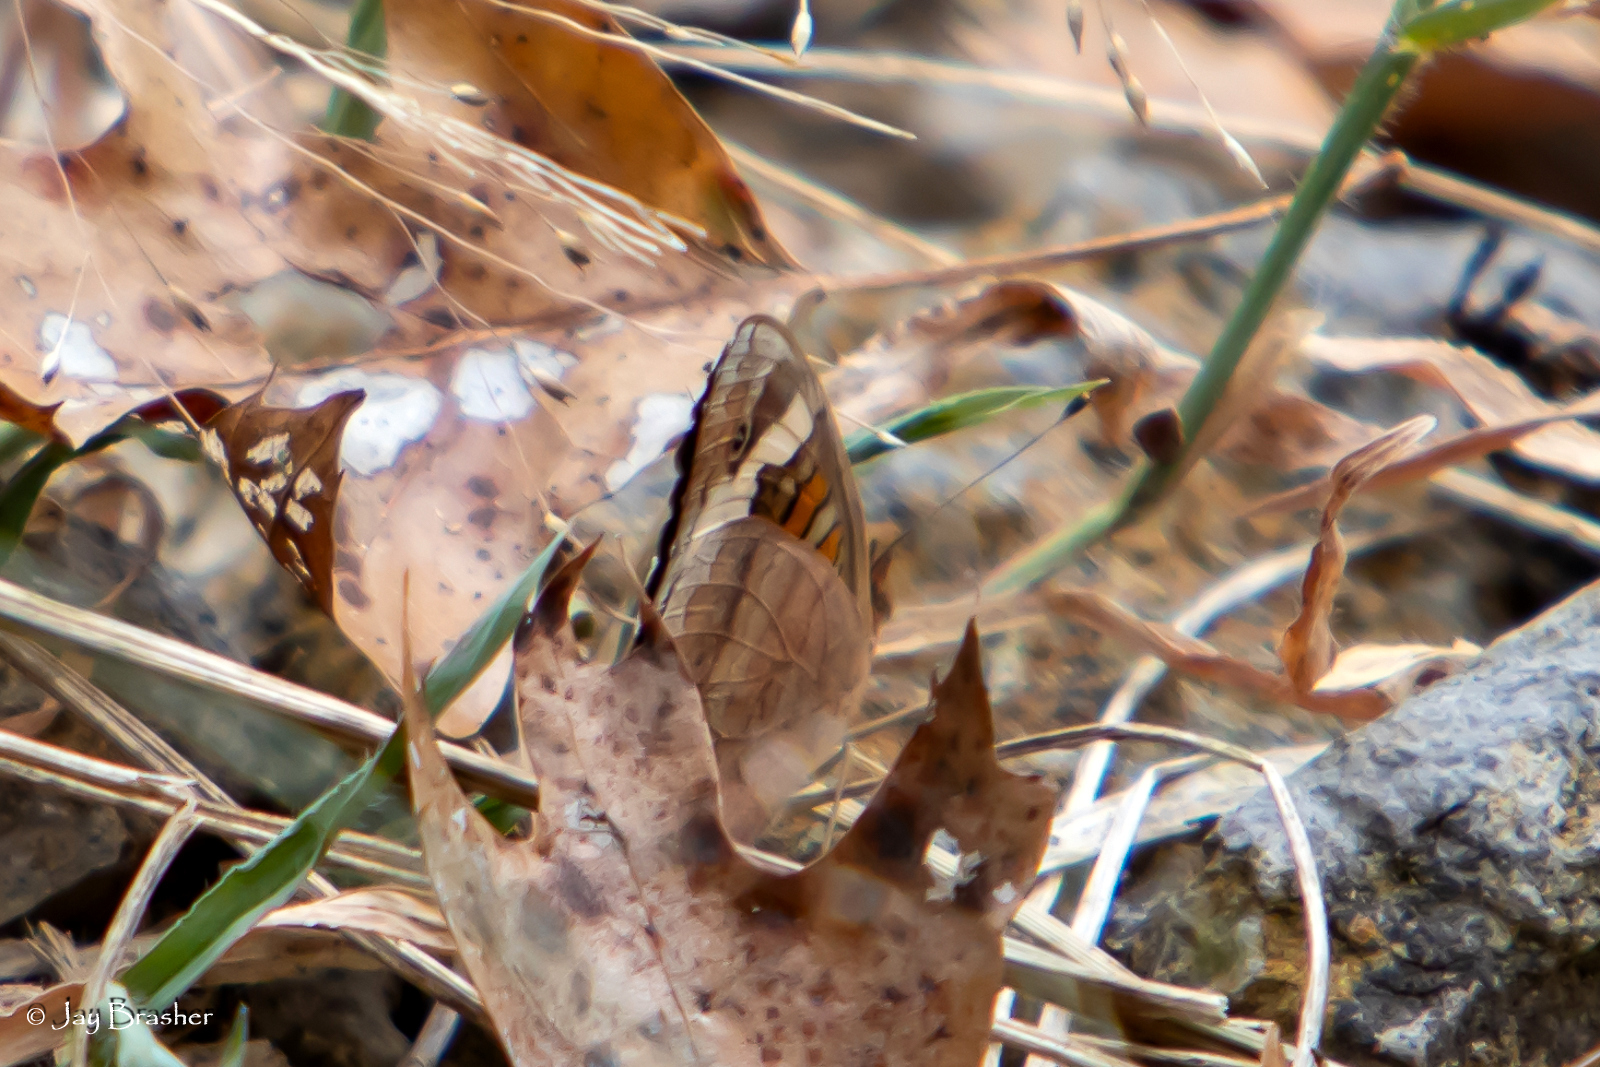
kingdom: Animalia
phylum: Arthropoda
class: Insecta
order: Lepidoptera
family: Nymphalidae
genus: Junonia
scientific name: Junonia coenia
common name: Common buckeye
